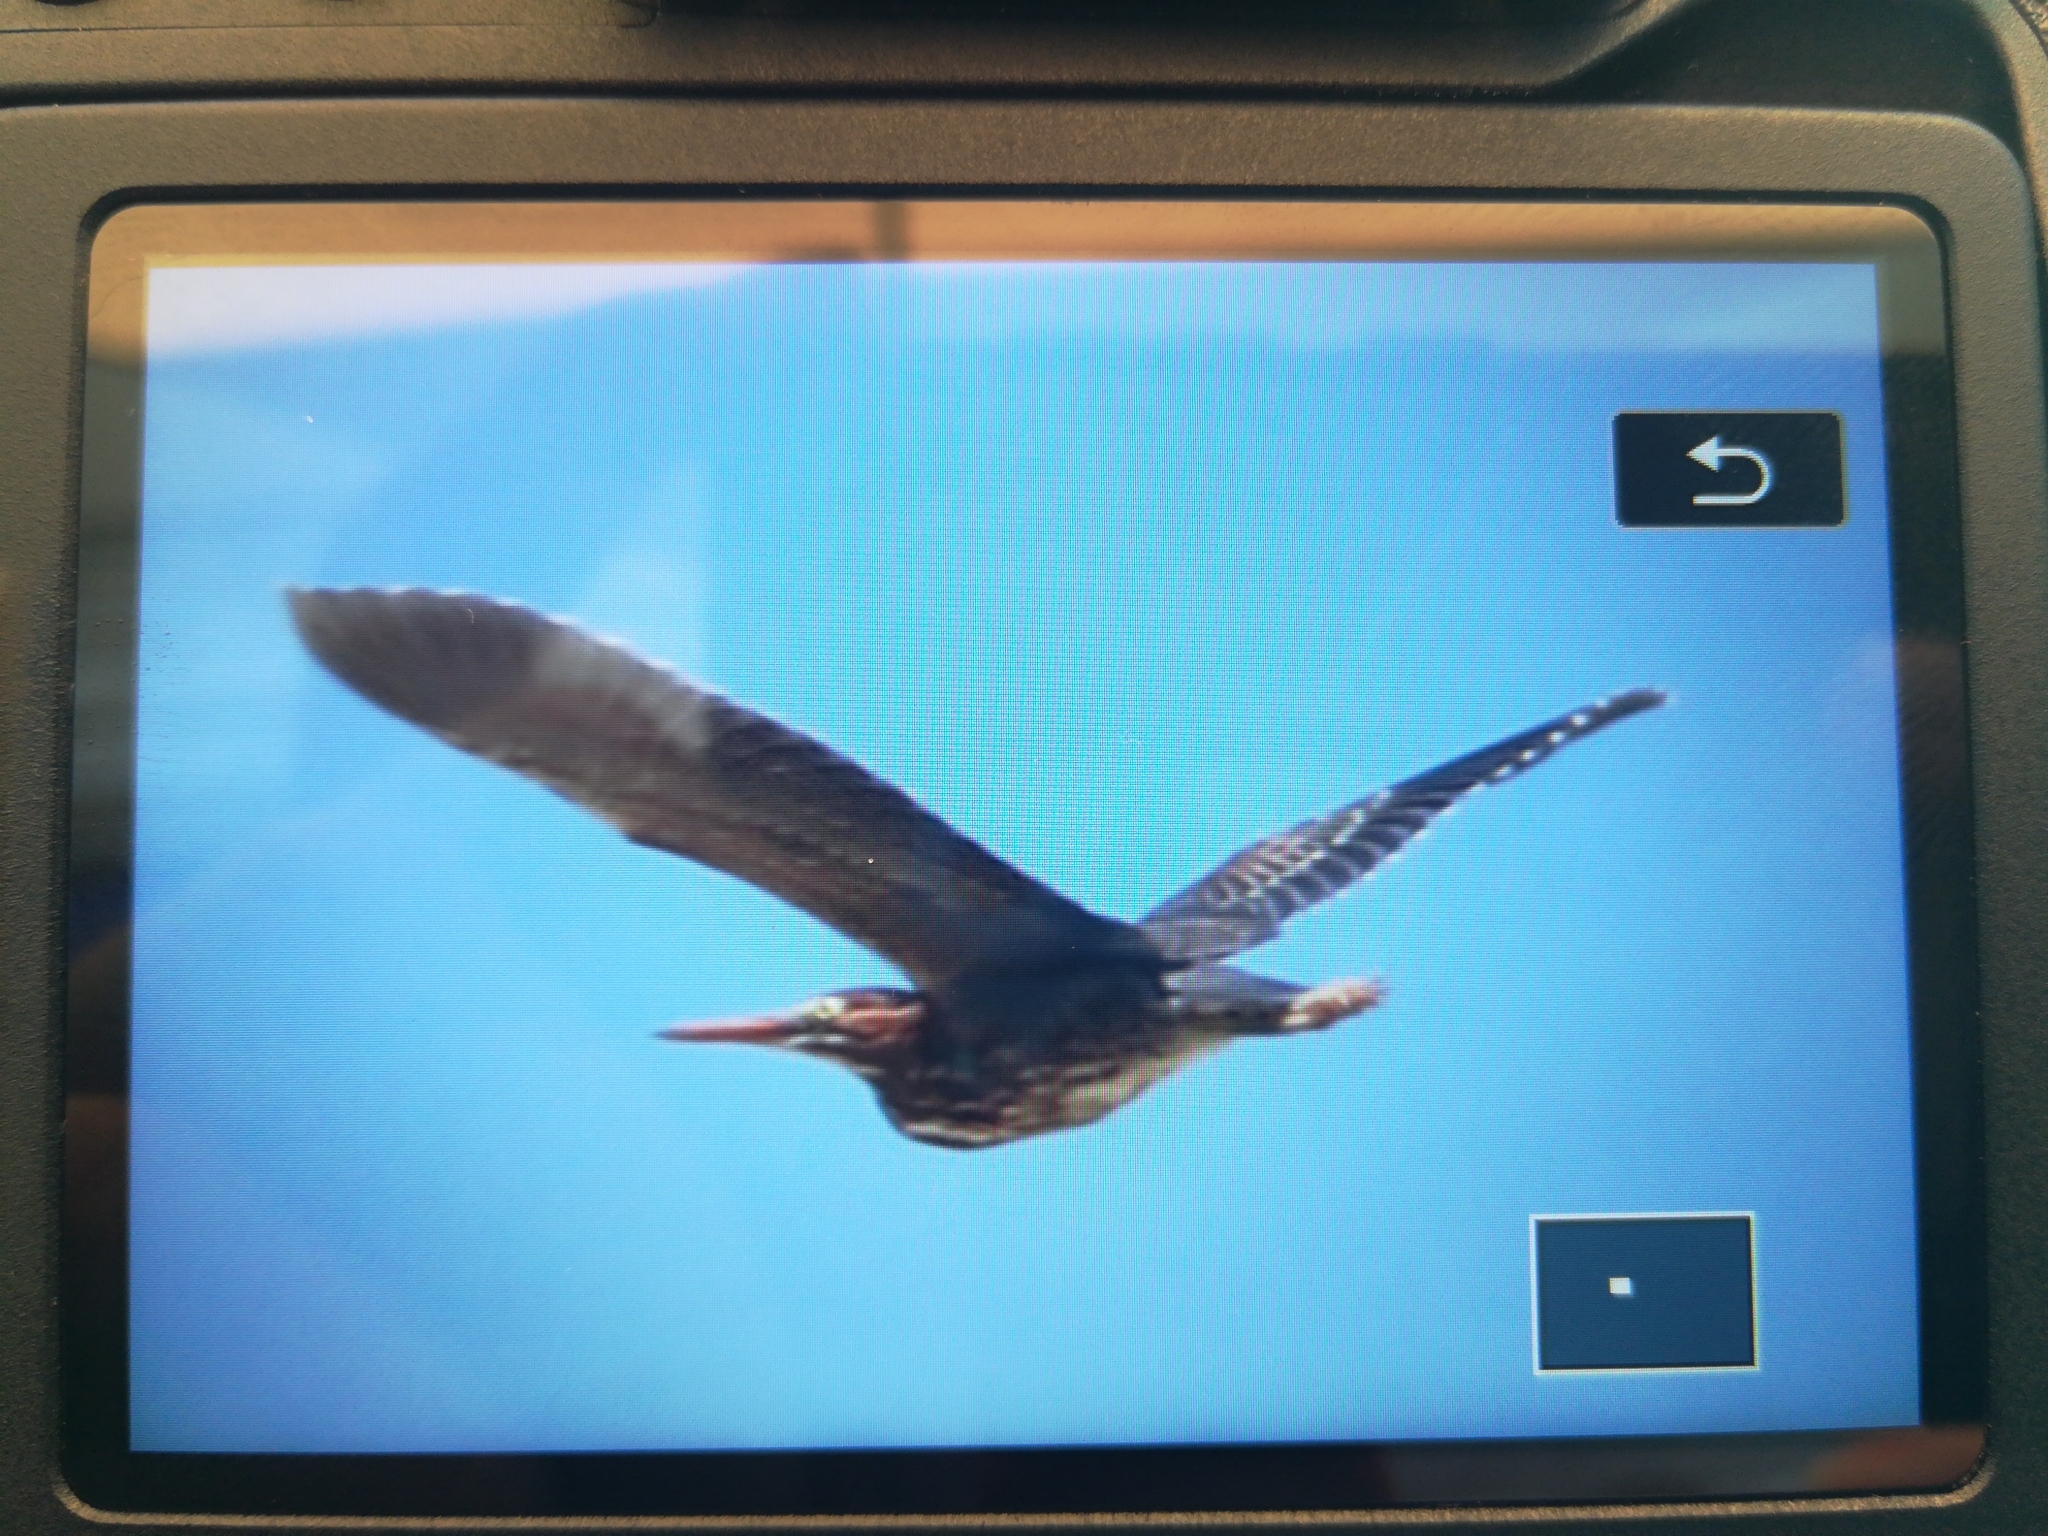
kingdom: Animalia
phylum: Chordata
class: Aves
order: Pelecaniformes
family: Ardeidae
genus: Butorides
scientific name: Butorides virescens
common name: Green heron
